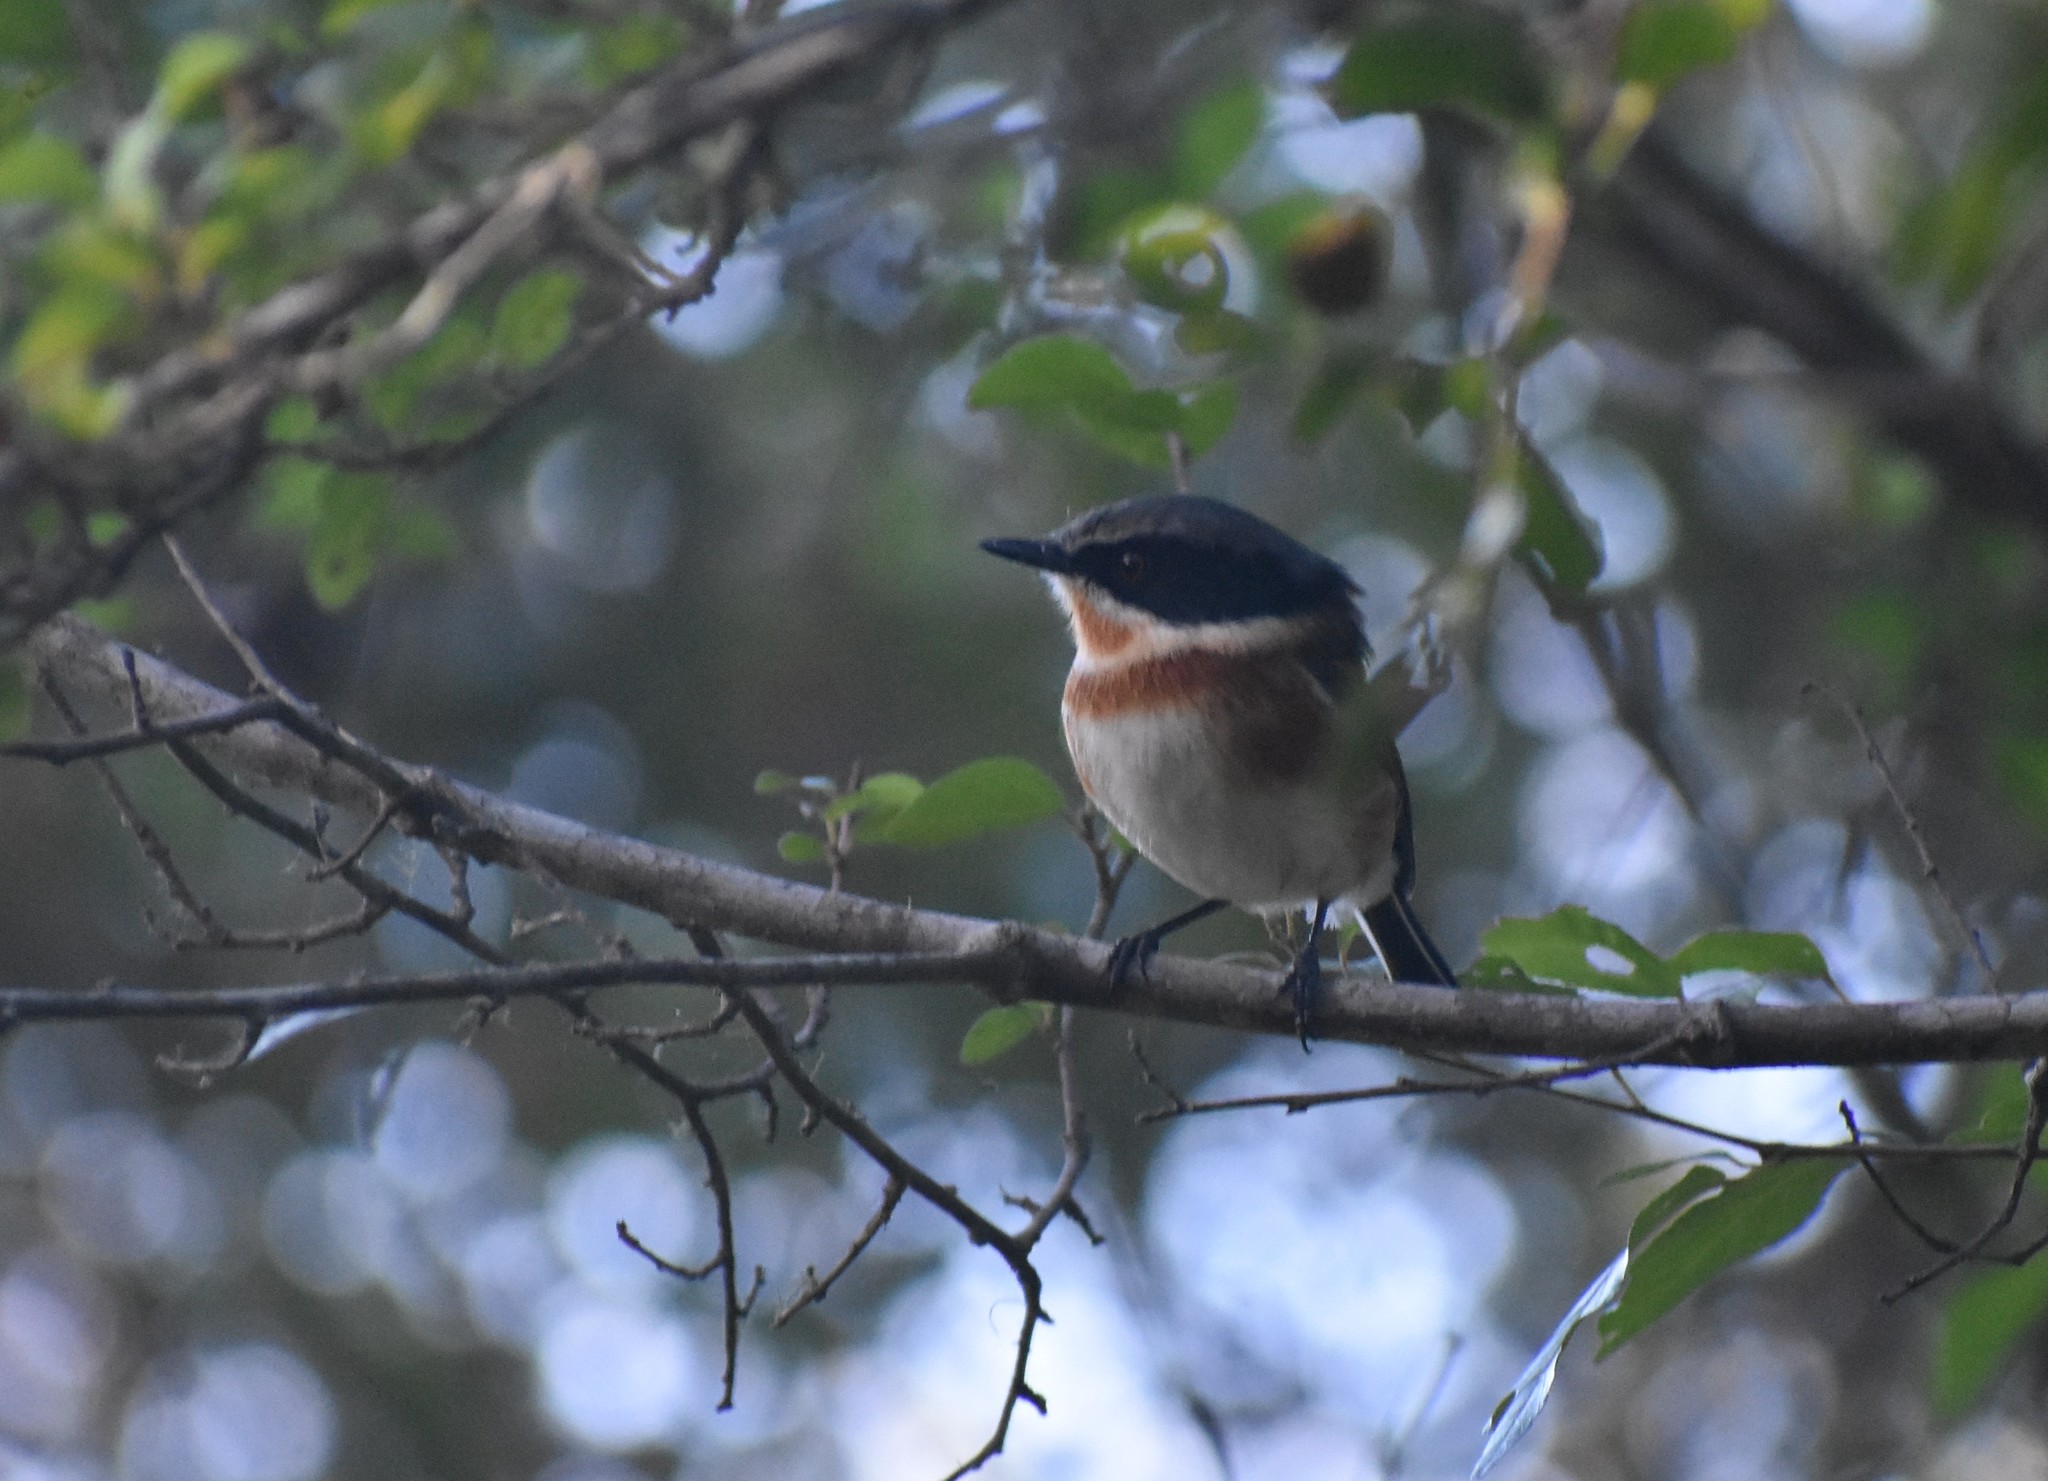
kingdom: Animalia
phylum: Chordata
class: Aves
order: Passeriformes
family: Platysteiridae
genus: Batis
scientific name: Batis capensis
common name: Cape batis
